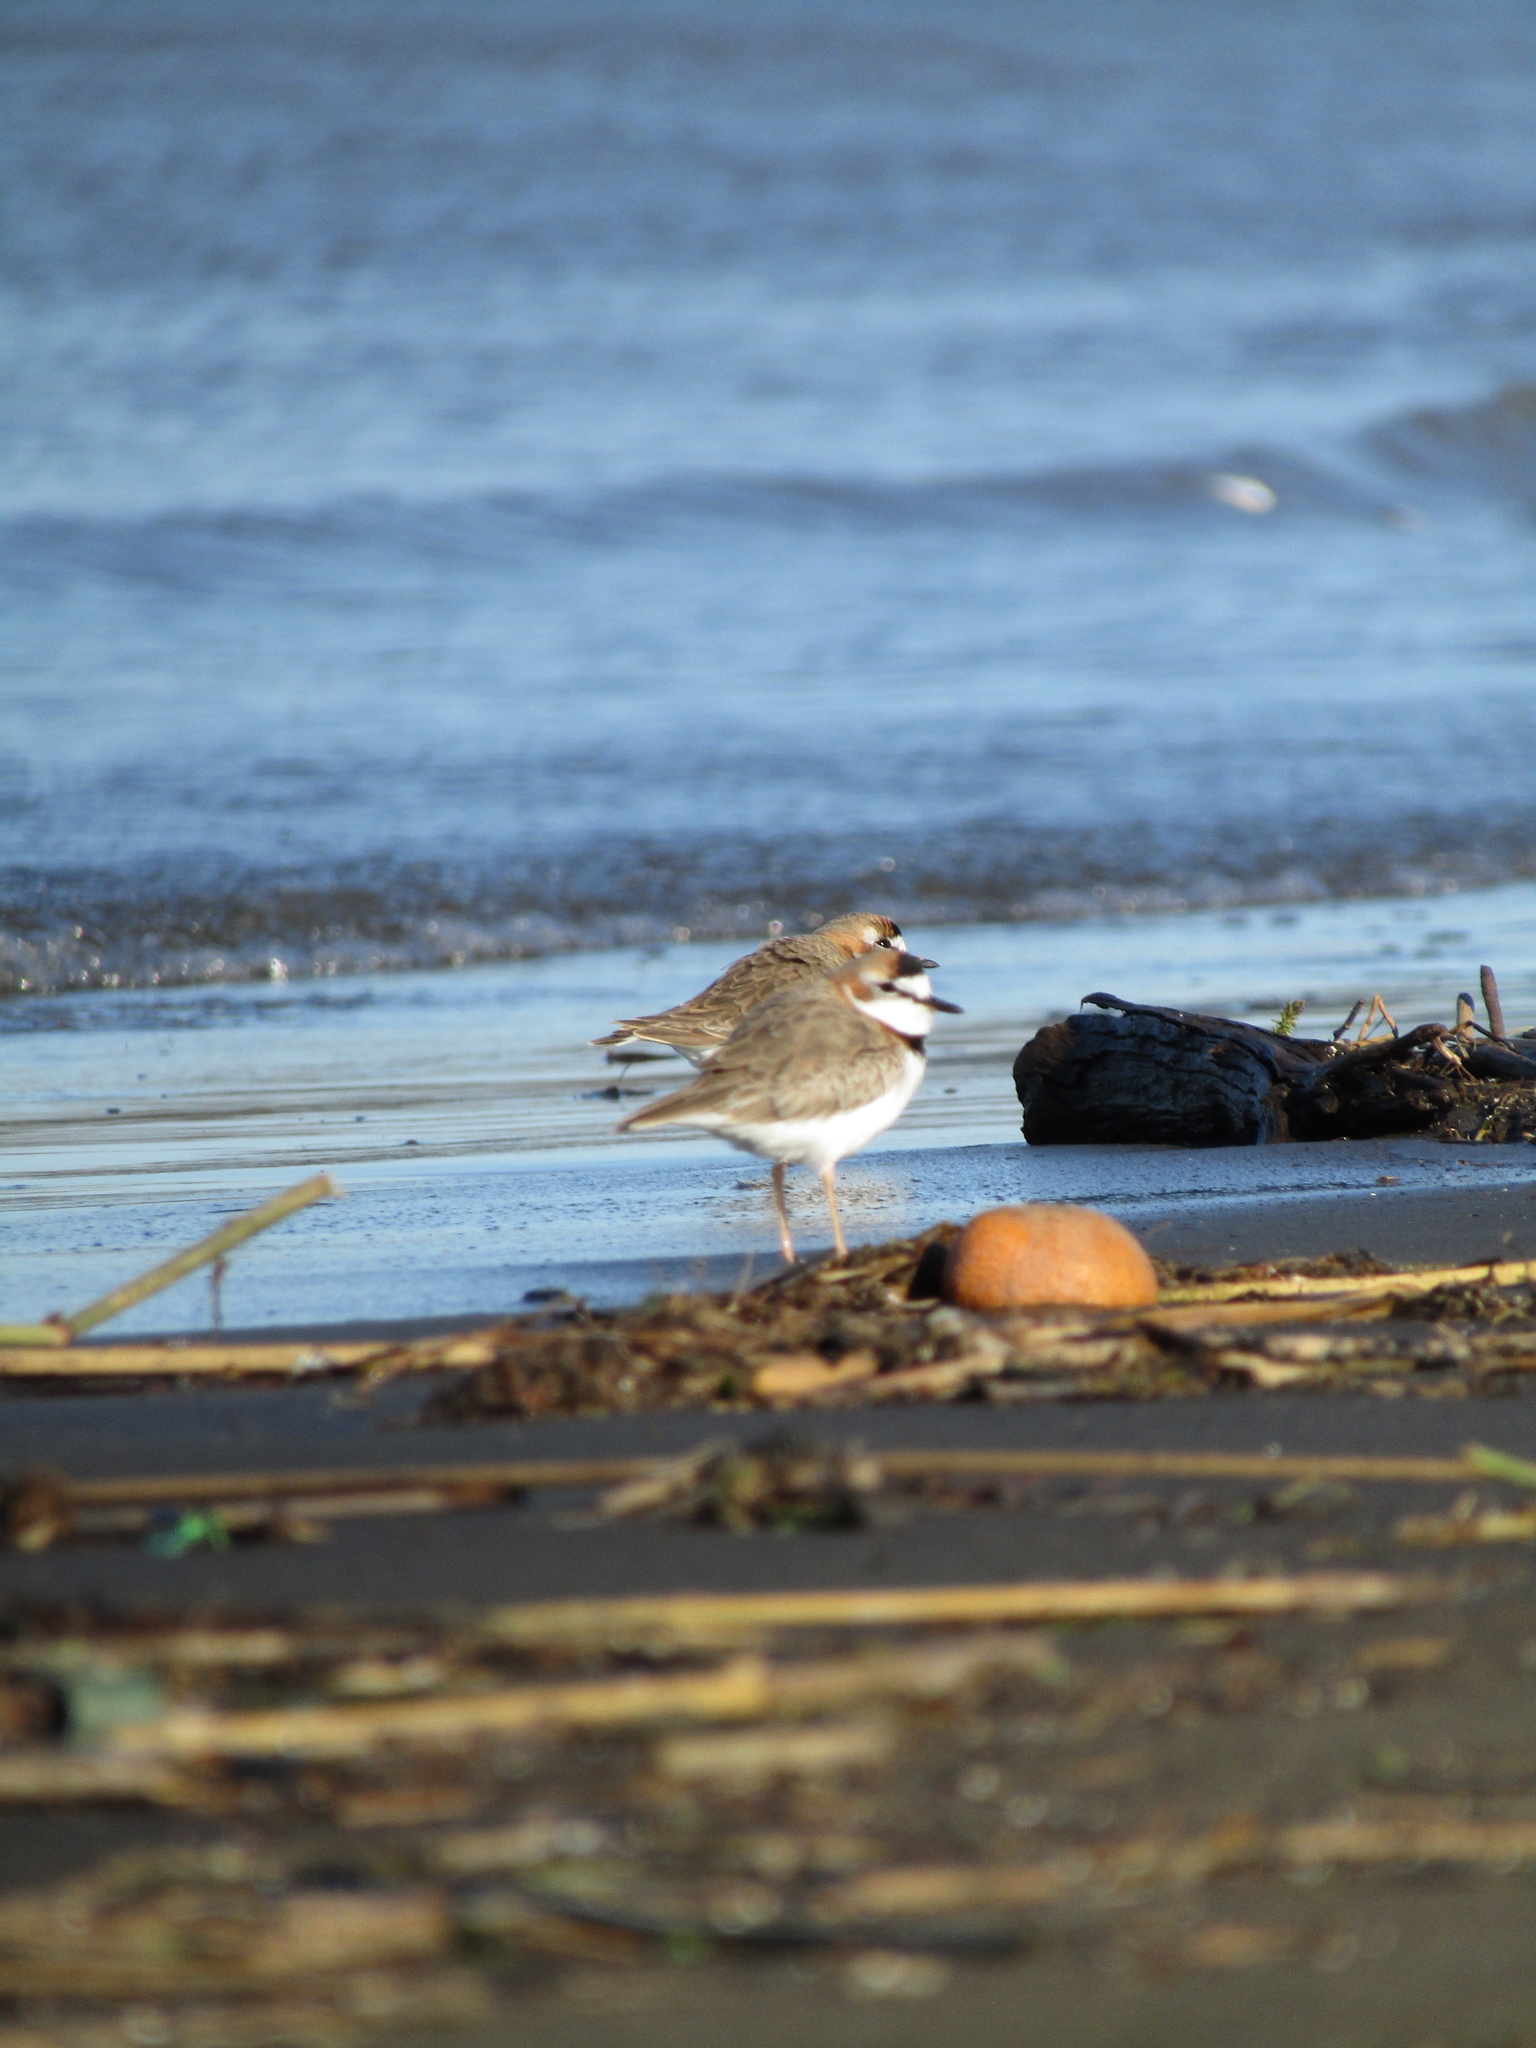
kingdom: Animalia
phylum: Chordata
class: Aves
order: Charadriiformes
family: Charadriidae
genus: Anarhynchus
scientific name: Anarhynchus
